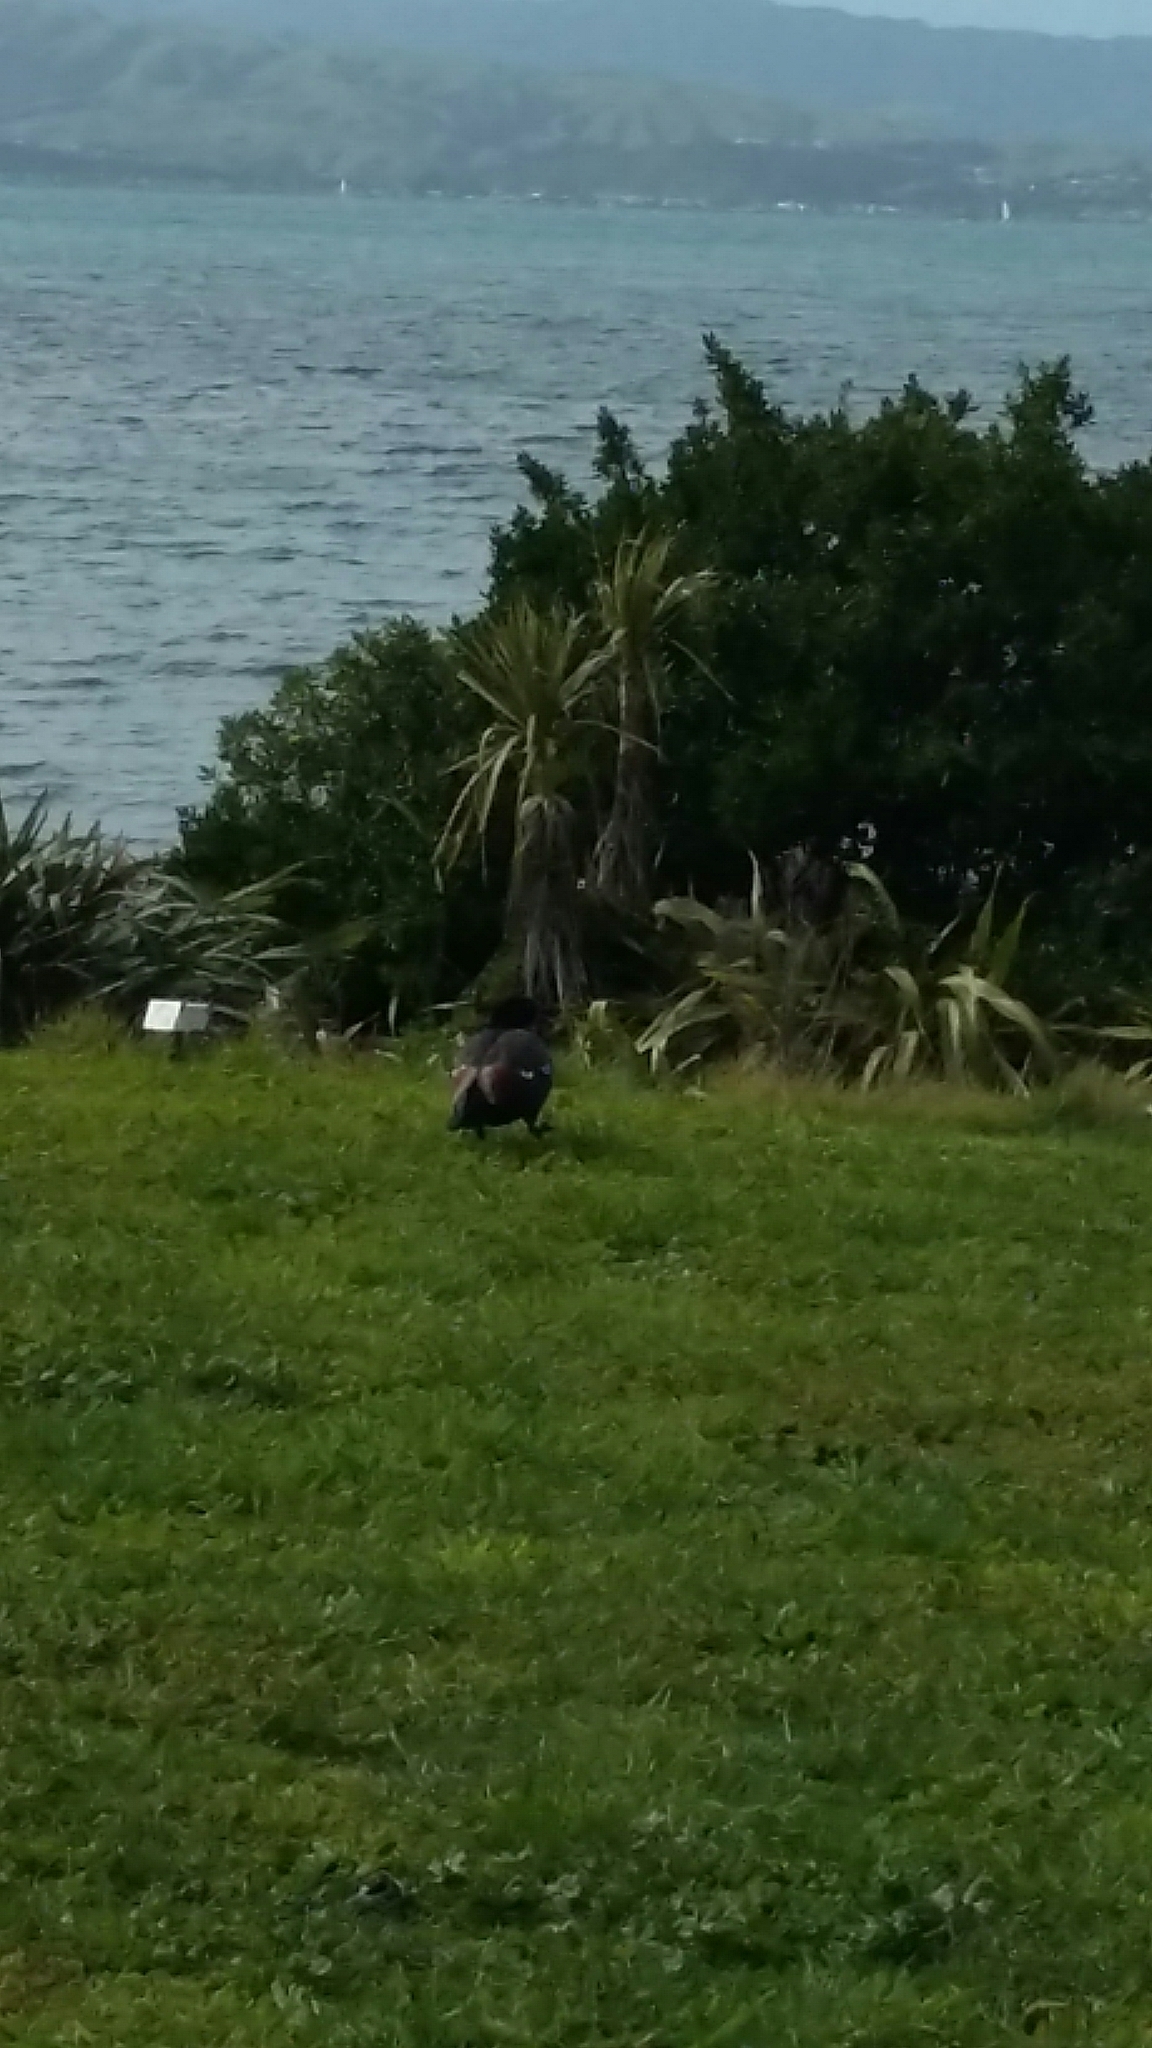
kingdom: Animalia
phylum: Chordata
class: Aves
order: Anseriformes
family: Anatidae
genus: Tadorna
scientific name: Tadorna variegata
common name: Paradise shelduck
